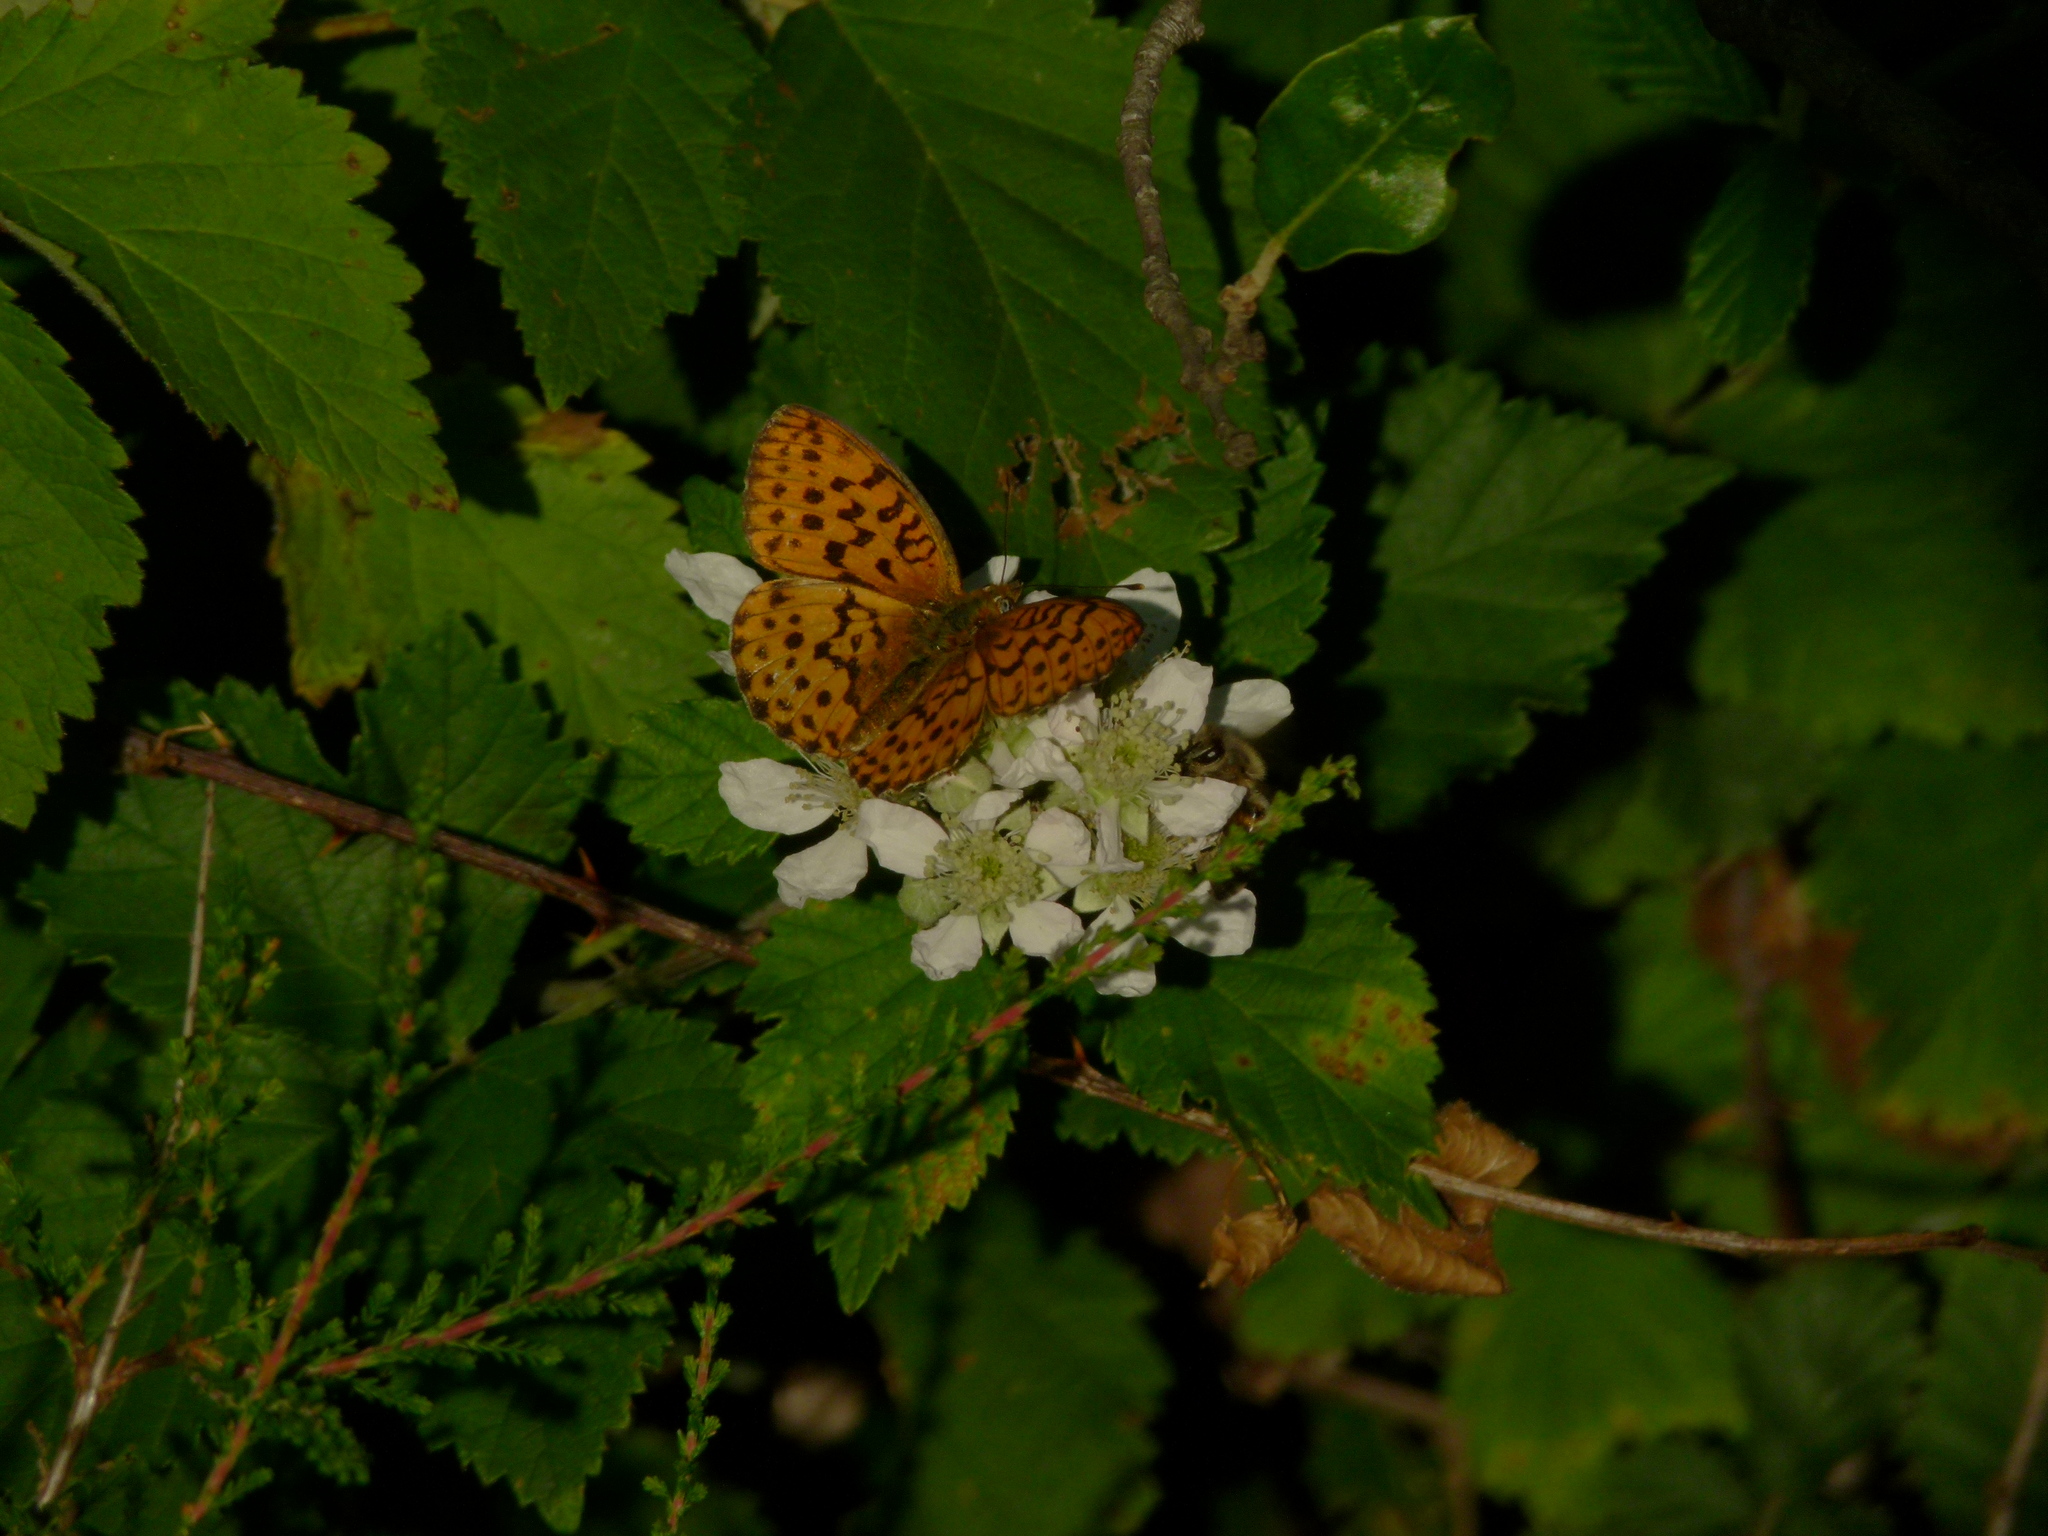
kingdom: Animalia
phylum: Arthropoda
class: Insecta
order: Lepidoptera
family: Nymphalidae
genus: Brenthis
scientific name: Brenthis daphne
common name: Marbled fritillary
